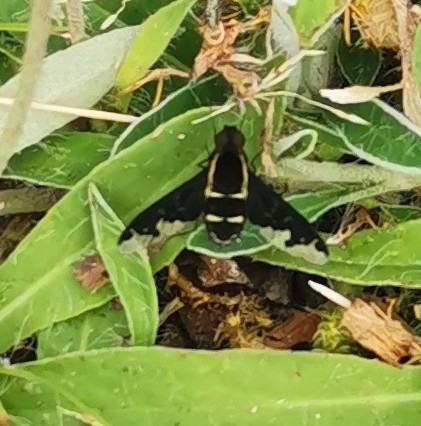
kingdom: Animalia
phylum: Arthropoda
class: Insecta
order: Diptera
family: Bombyliidae
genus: Hemipenthes
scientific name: Hemipenthes maura
